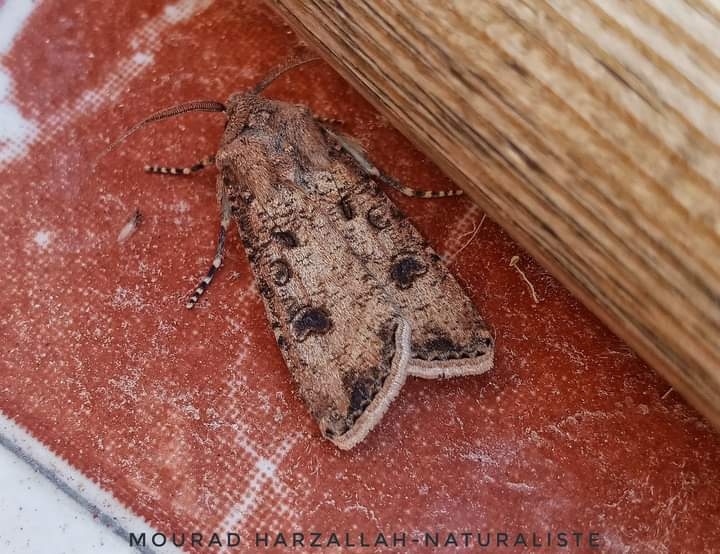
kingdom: Animalia
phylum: Arthropoda
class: Insecta
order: Lepidoptera
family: Noctuidae
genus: Agrotis
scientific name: Agrotis segetum
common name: Turnip moth
